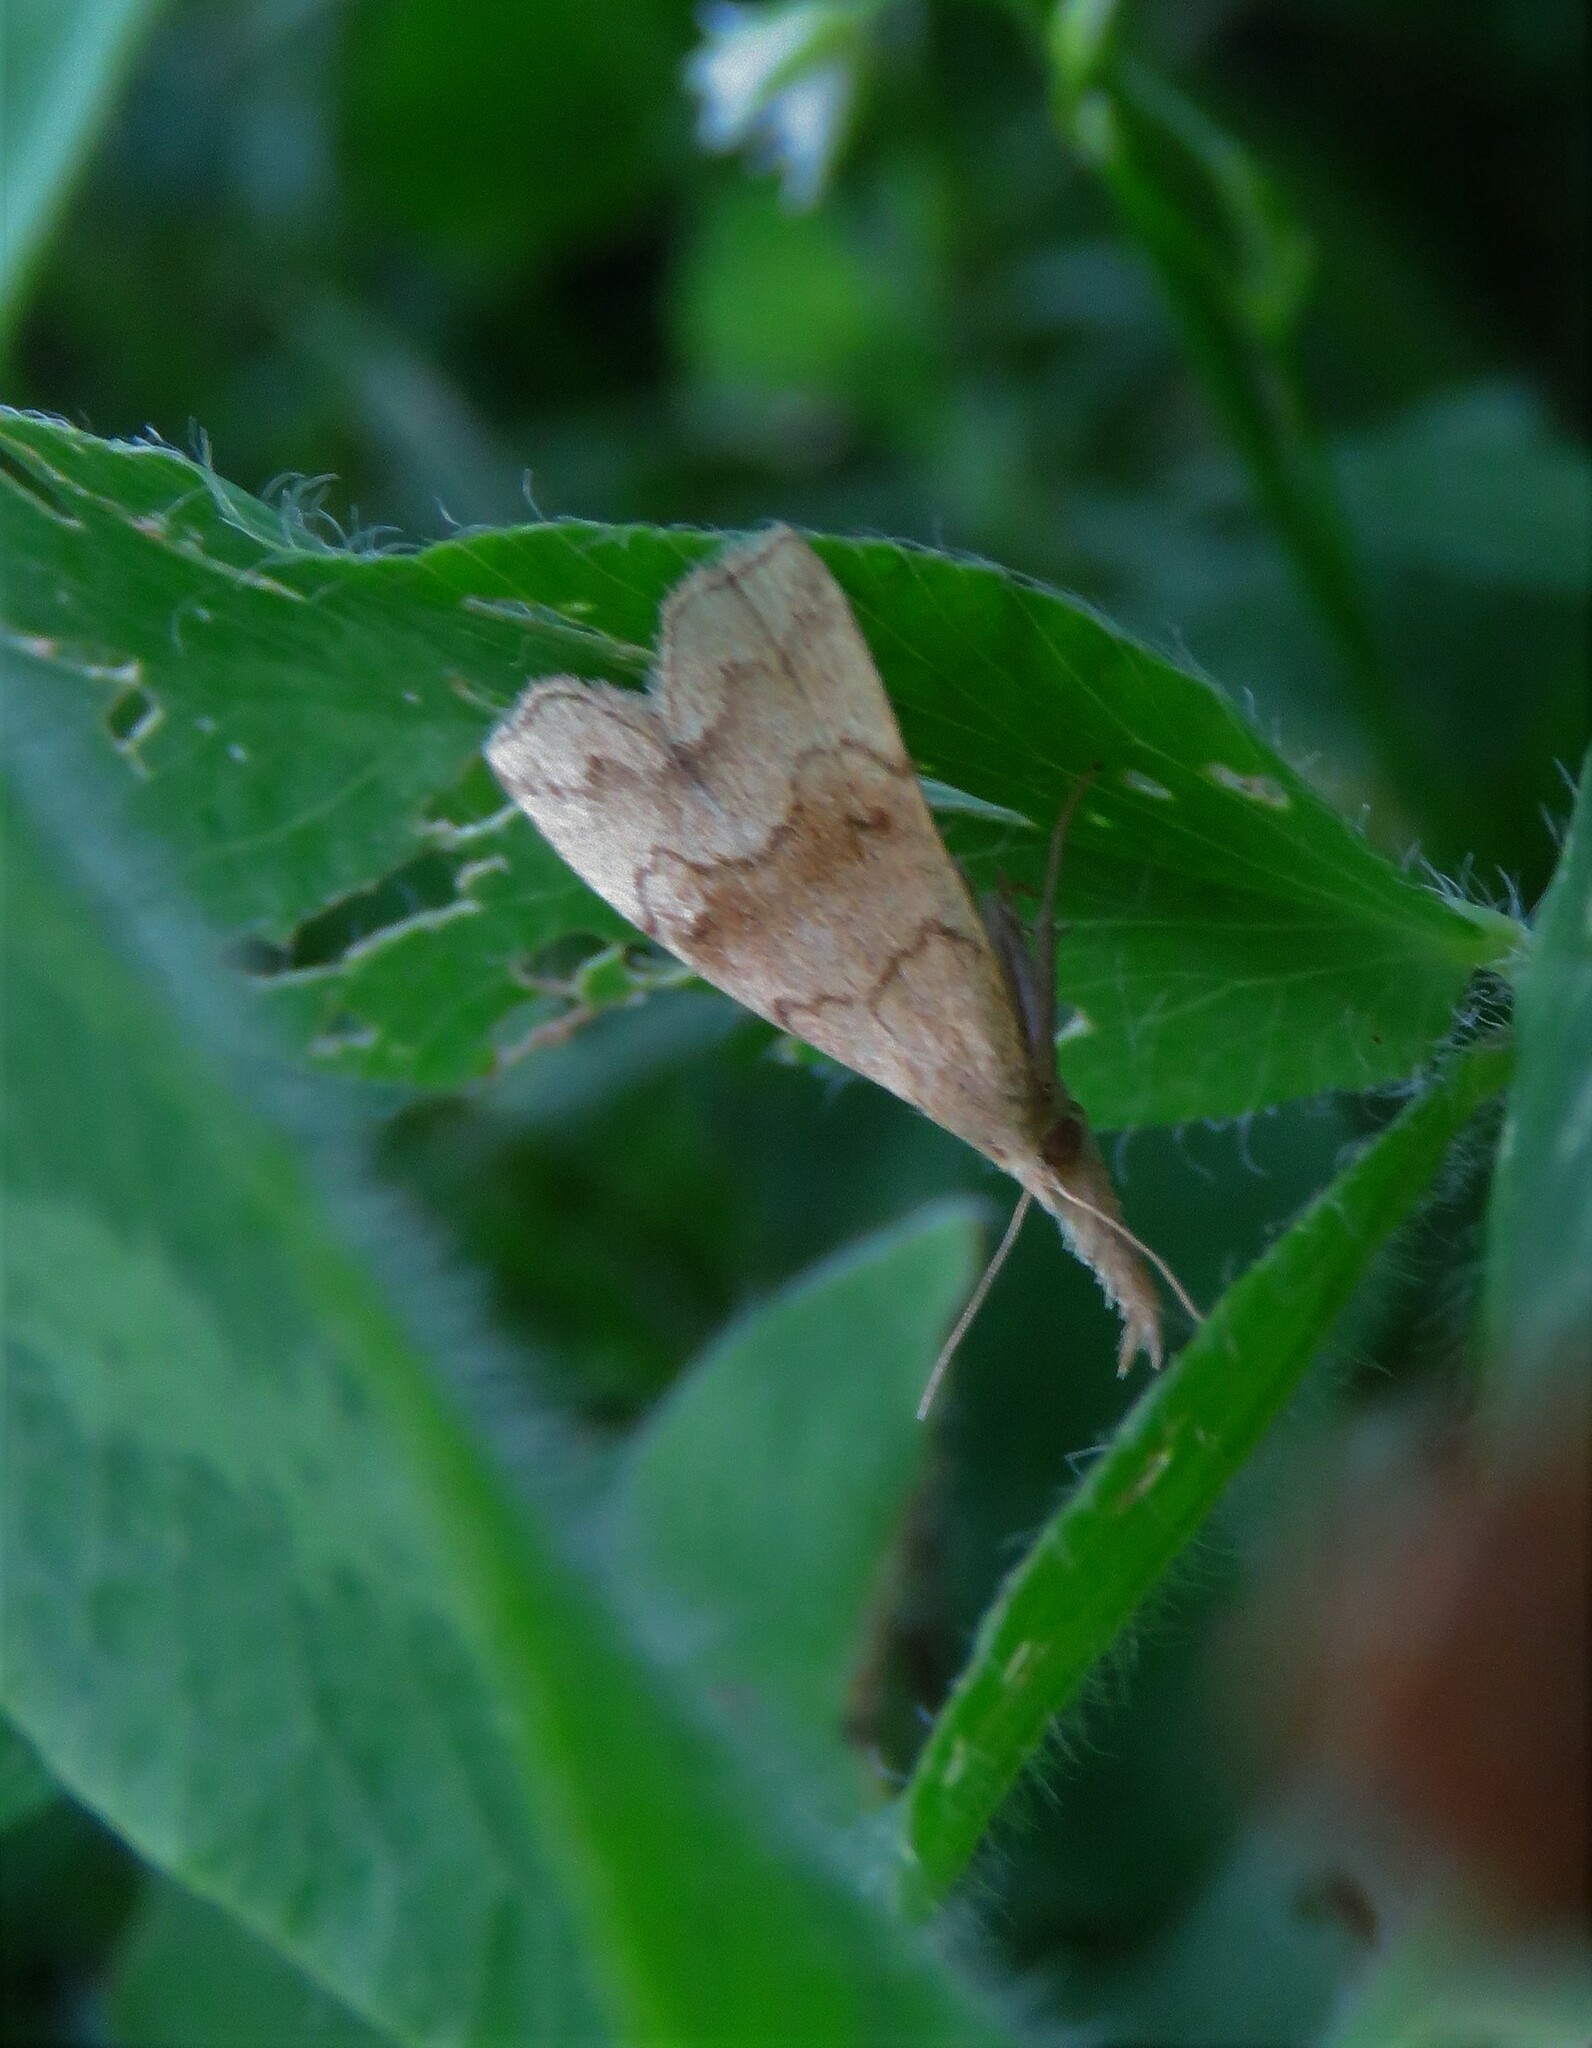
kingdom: Animalia
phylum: Arthropoda
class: Insecta
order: Lepidoptera
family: Erebidae
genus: Phalaenostola
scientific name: Phalaenostola metonalis
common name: Pale phalaenostola moth
